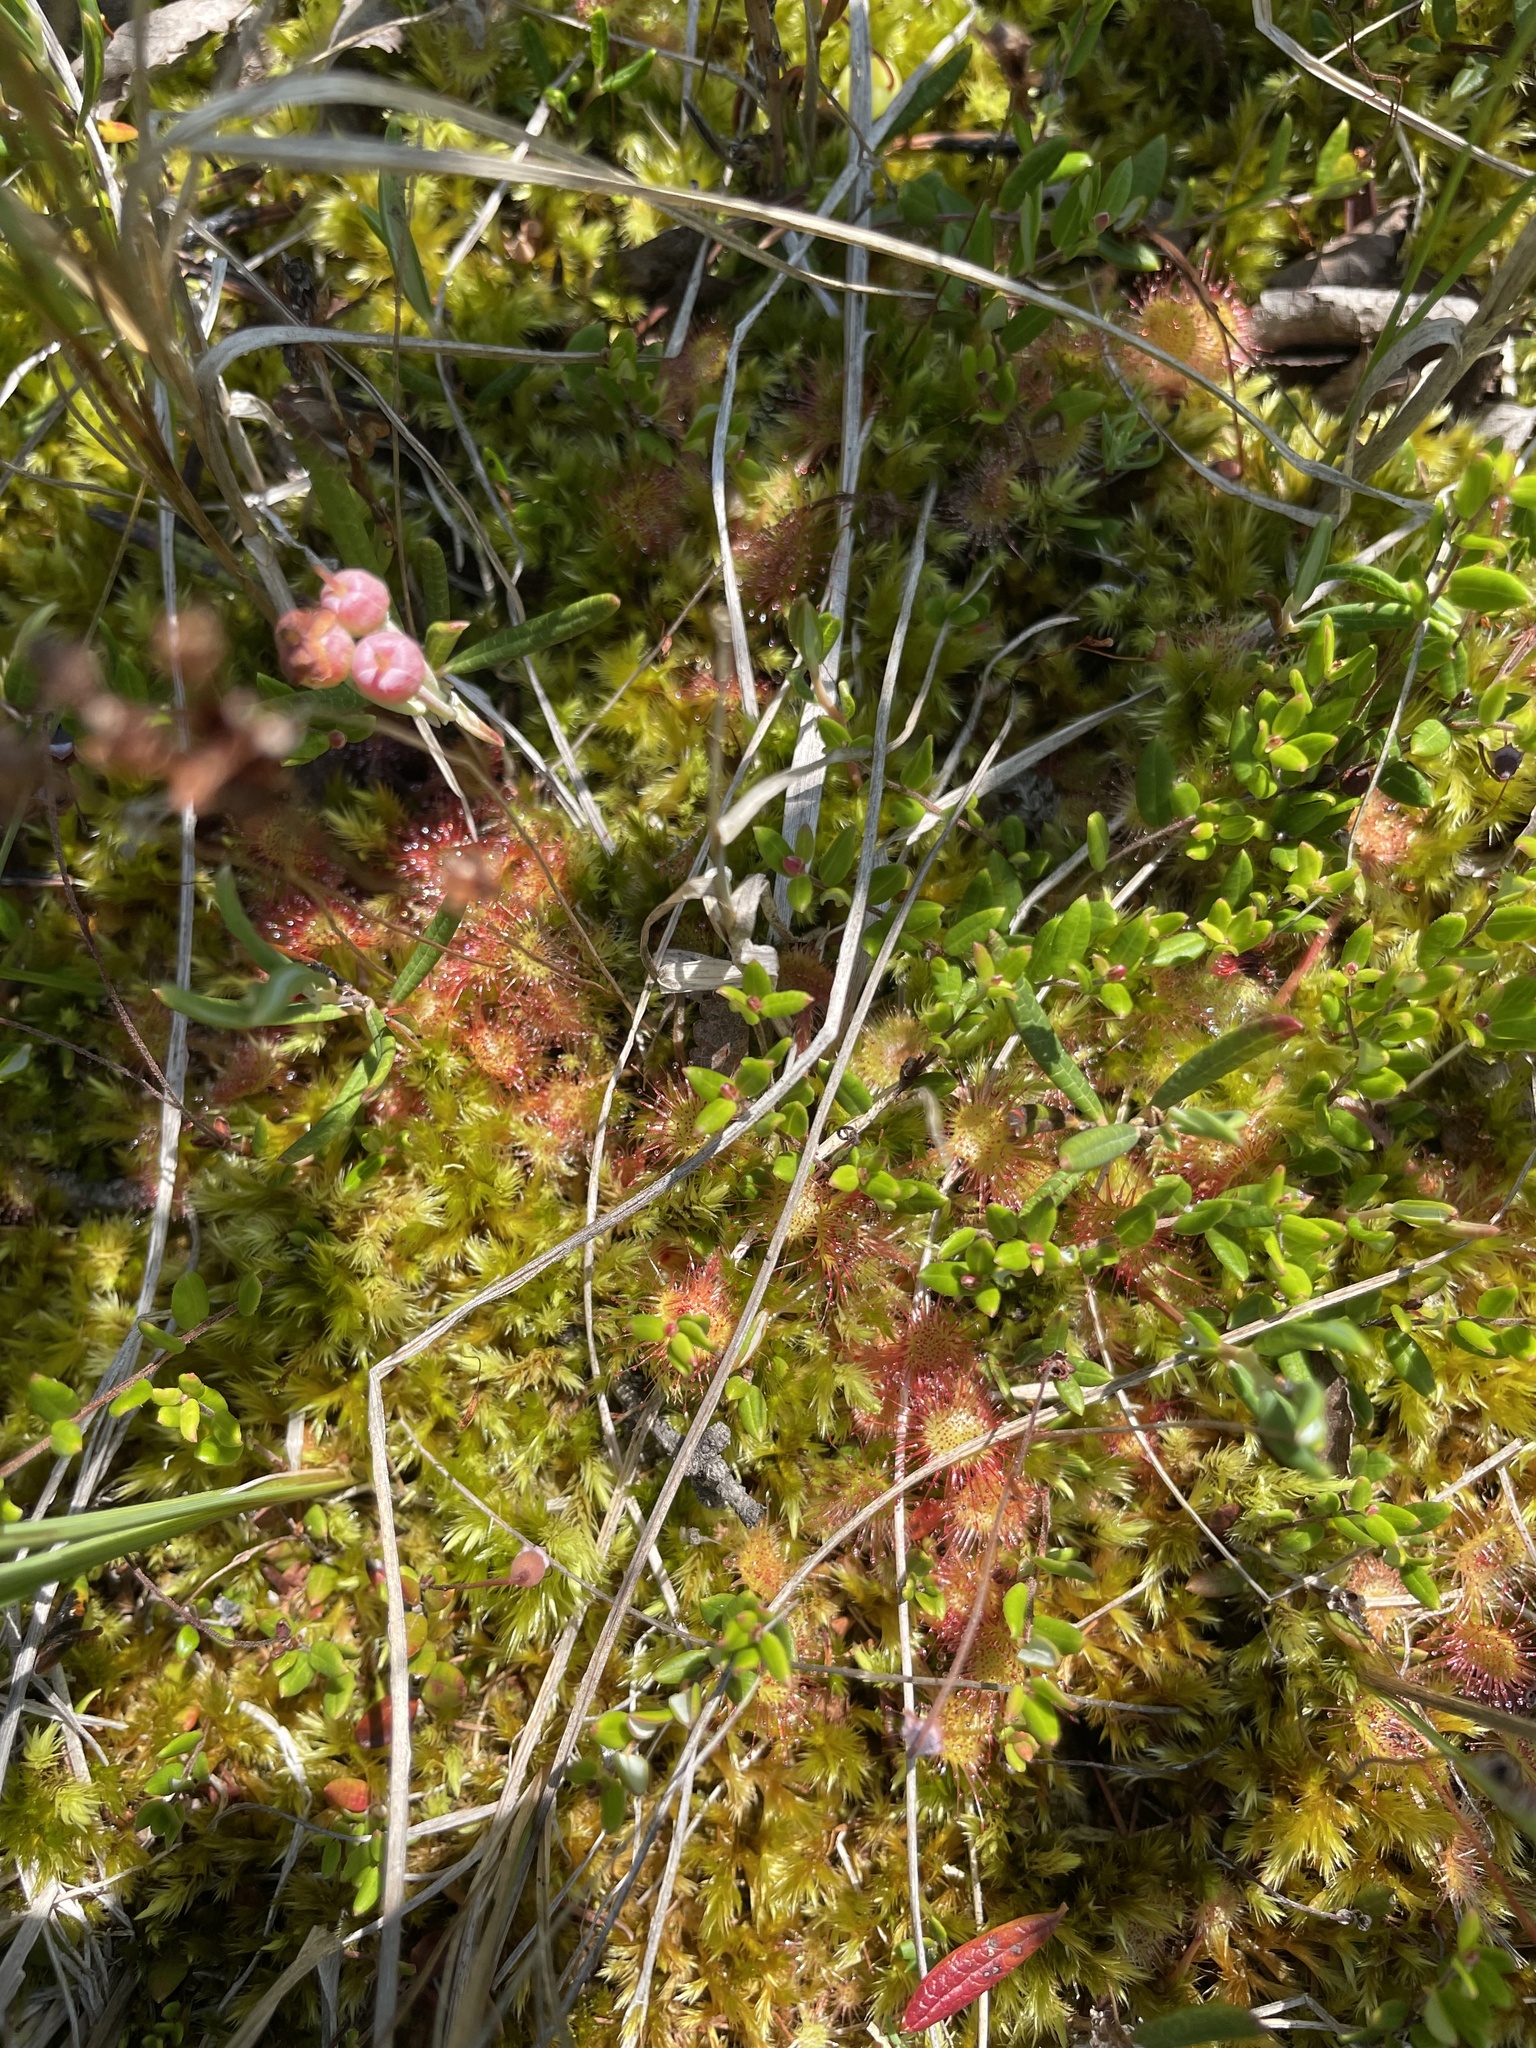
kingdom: Plantae
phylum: Tracheophyta
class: Magnoliopsida
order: Caryophyllales
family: Droseraceae
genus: Drosera
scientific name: Drosera rotundifolia
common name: Round-leaved sundew
